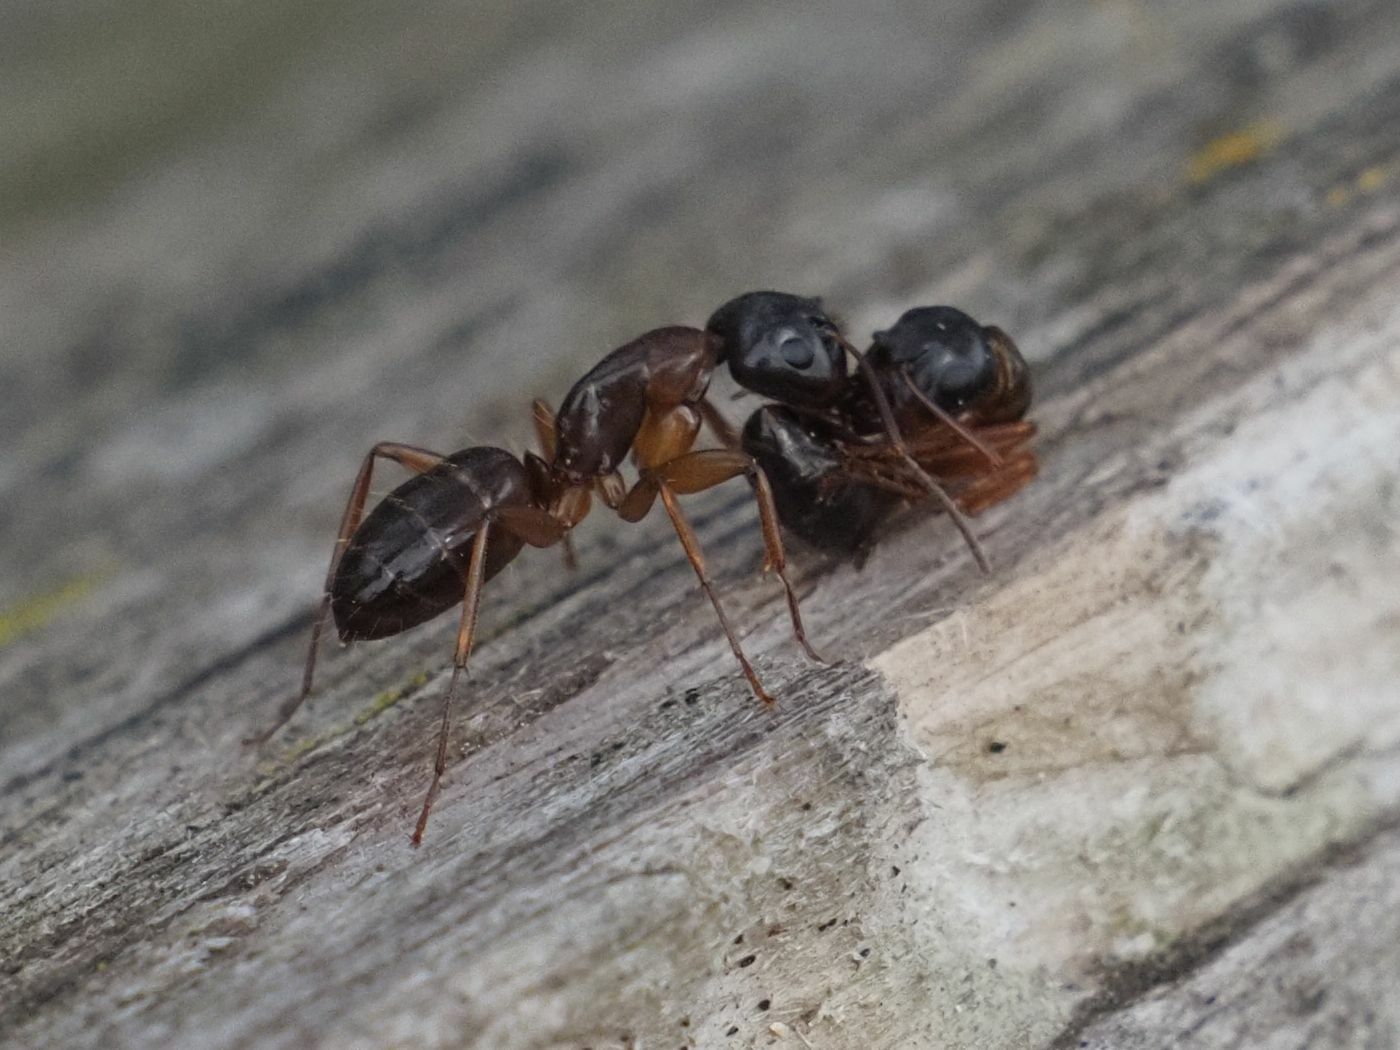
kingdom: Animalia
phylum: Arthropoda
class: Insecta
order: Hymenoptera
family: Formicidae
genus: Camponotus
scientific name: Camponotus fallax
